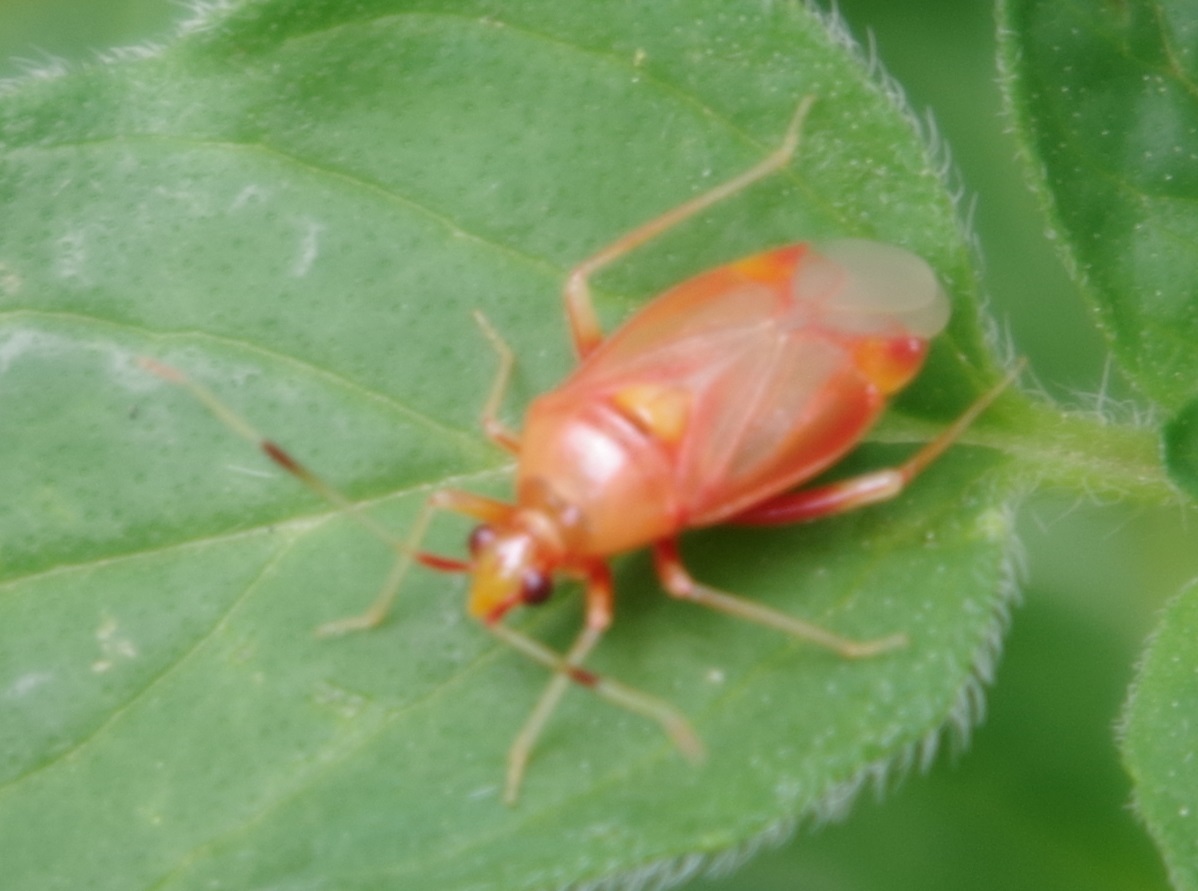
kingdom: Animalia
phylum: Arthropoda
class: Insecta
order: Hemiptera
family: Miridae
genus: Deraeocoris
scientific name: Deraeocoris ruber
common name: Plant bug
